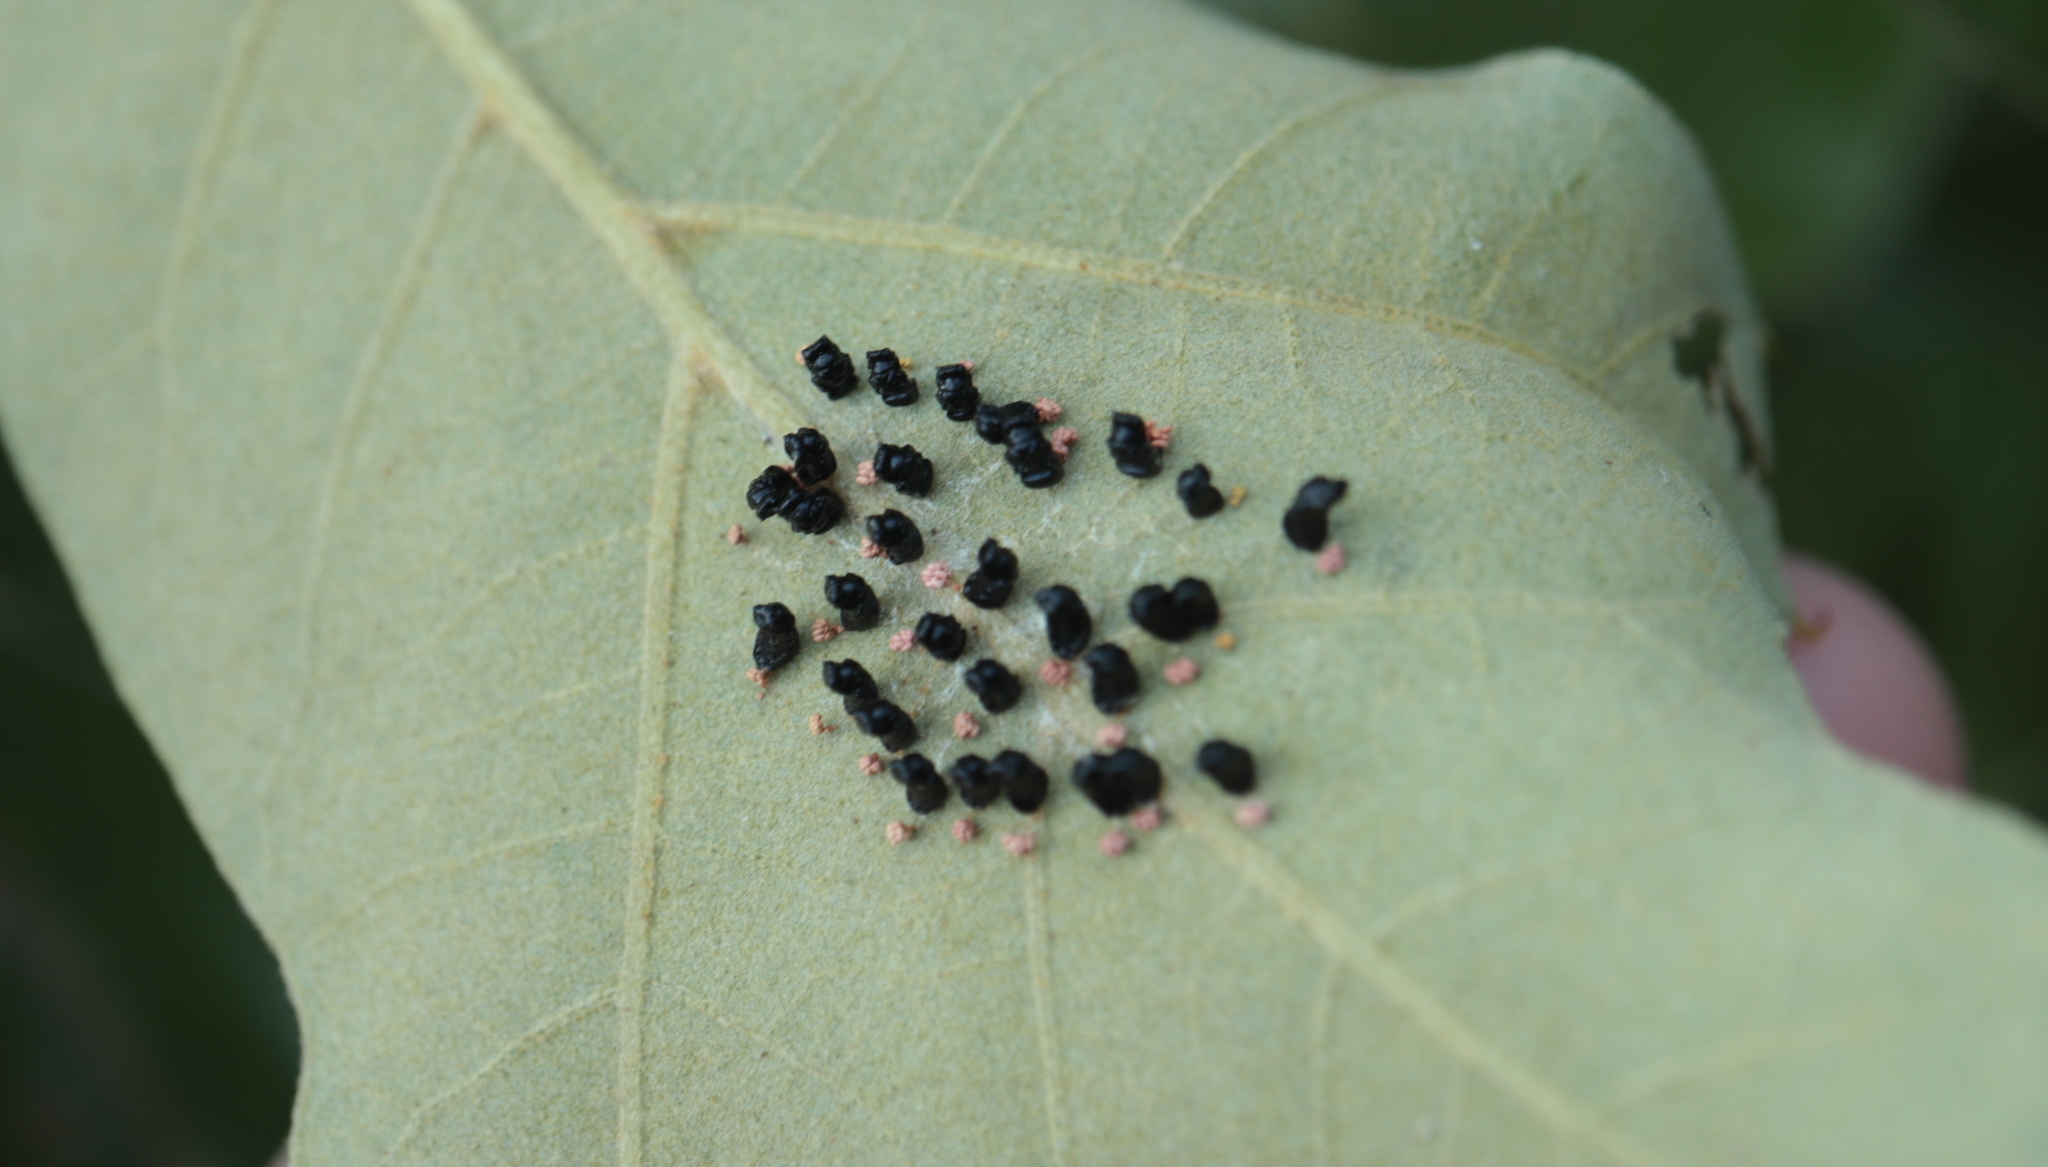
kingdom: Animalia
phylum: Arthropoda
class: Insecta
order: Hymenoptera
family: Eulophidae
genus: Eulophus
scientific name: Eulophus
